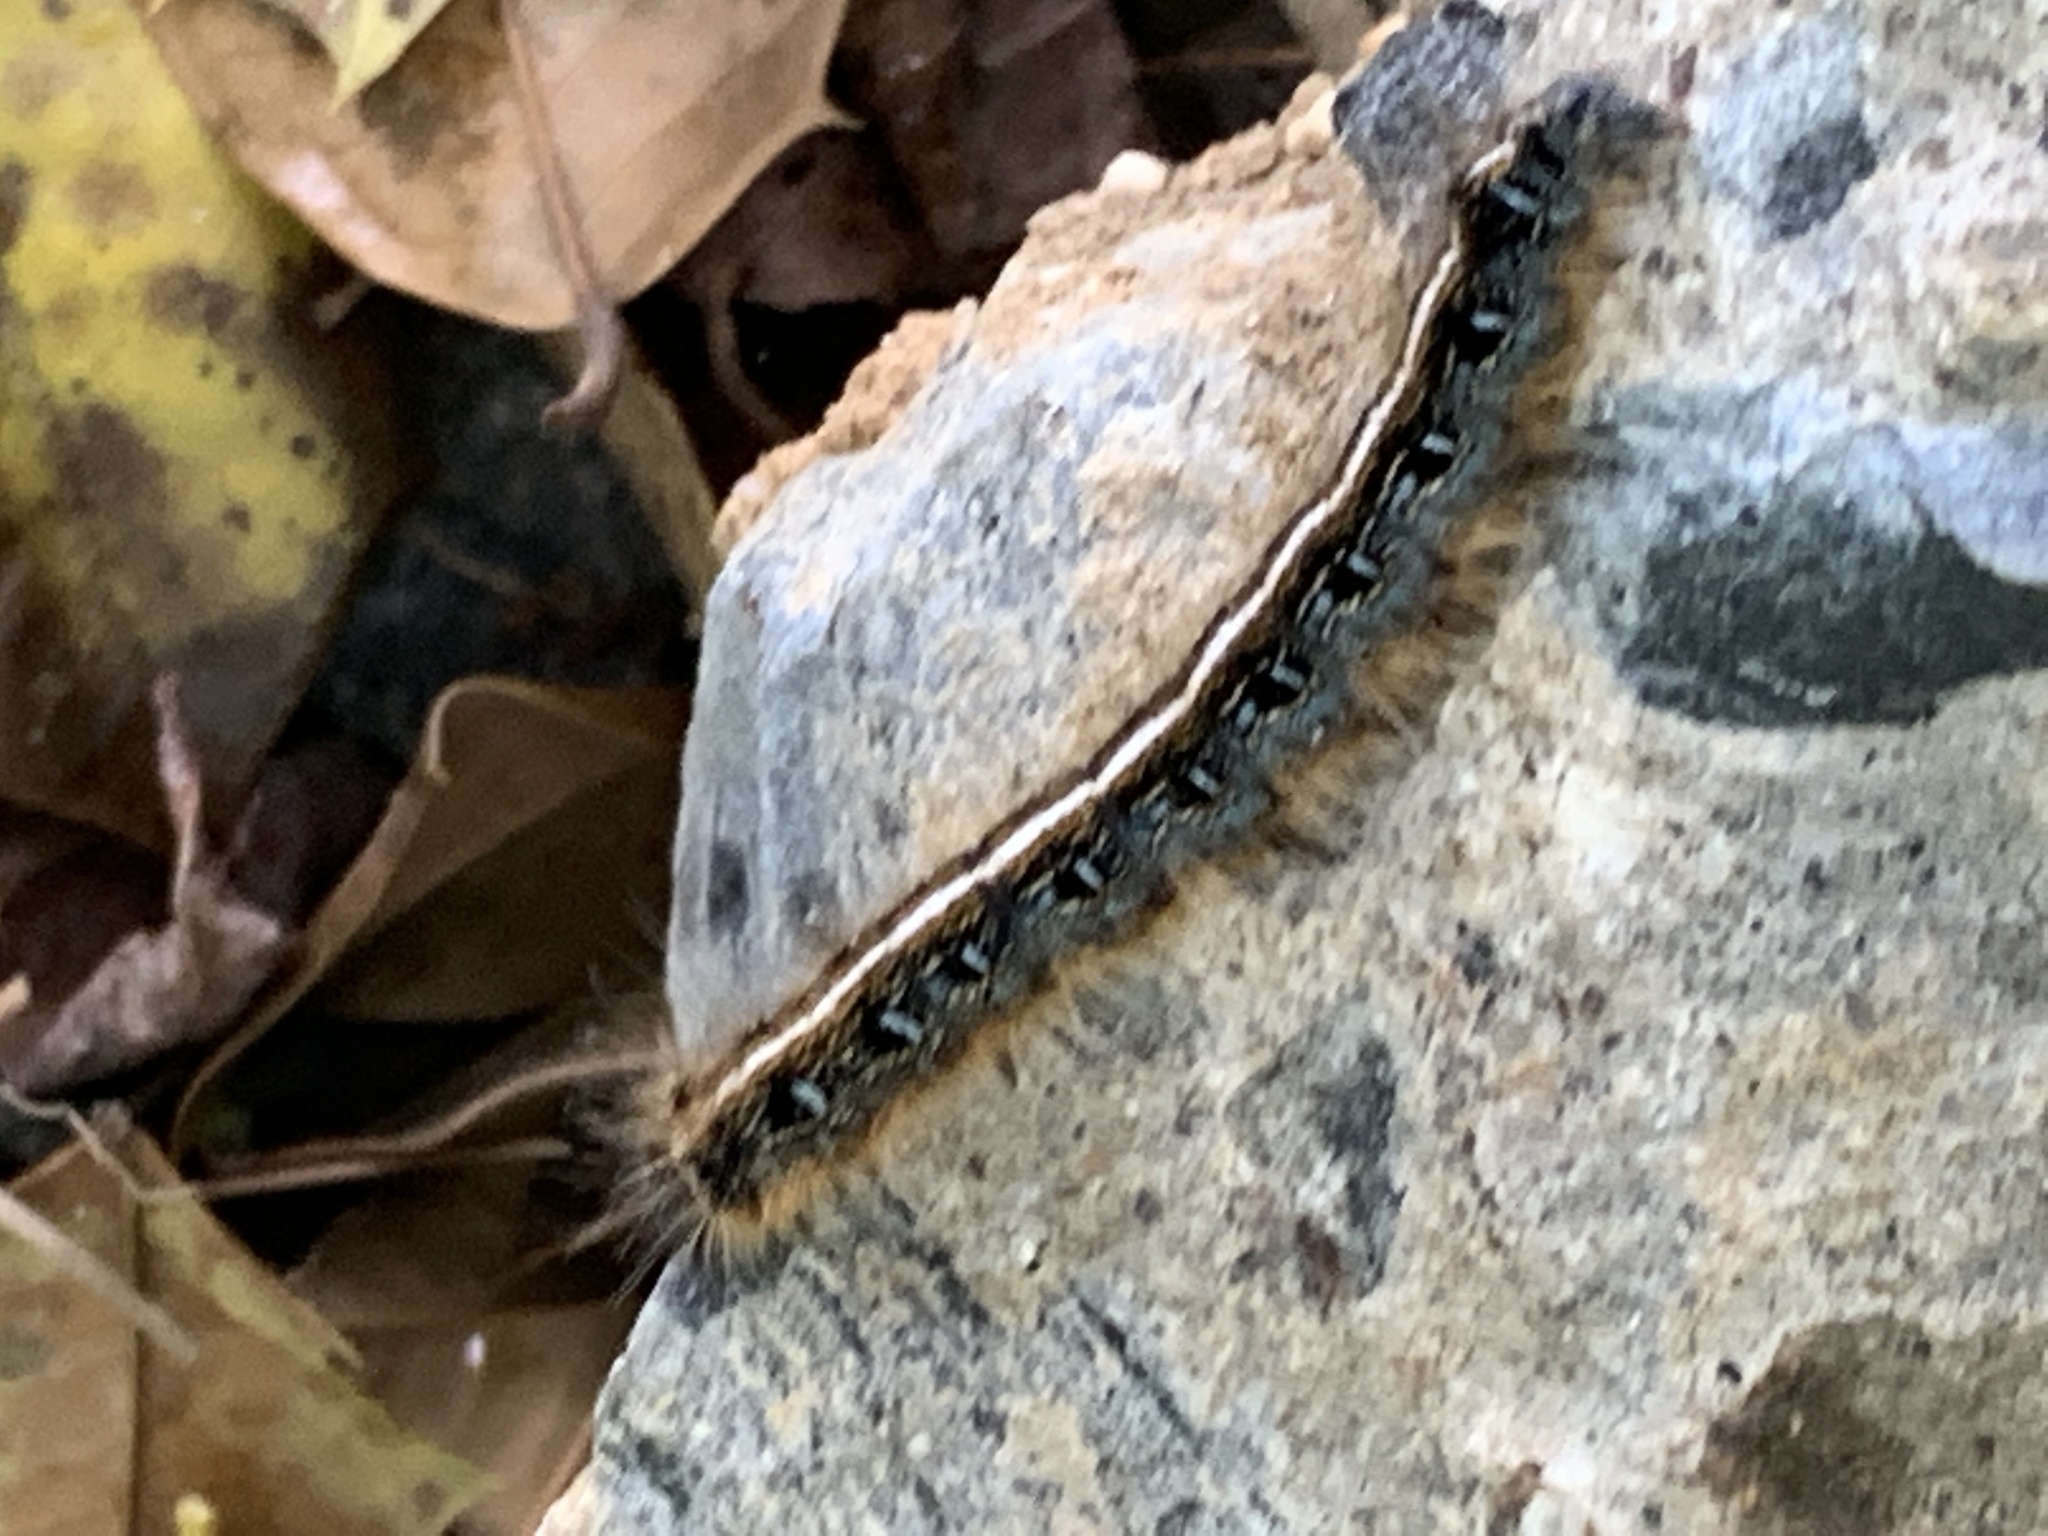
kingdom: Animalia
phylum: Arthropoda
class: Insecta
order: Lepidoptera
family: Lasiocampidae
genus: Malacosoma
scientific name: Malacosoma americana
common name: Eastern tent caterpillar moth
